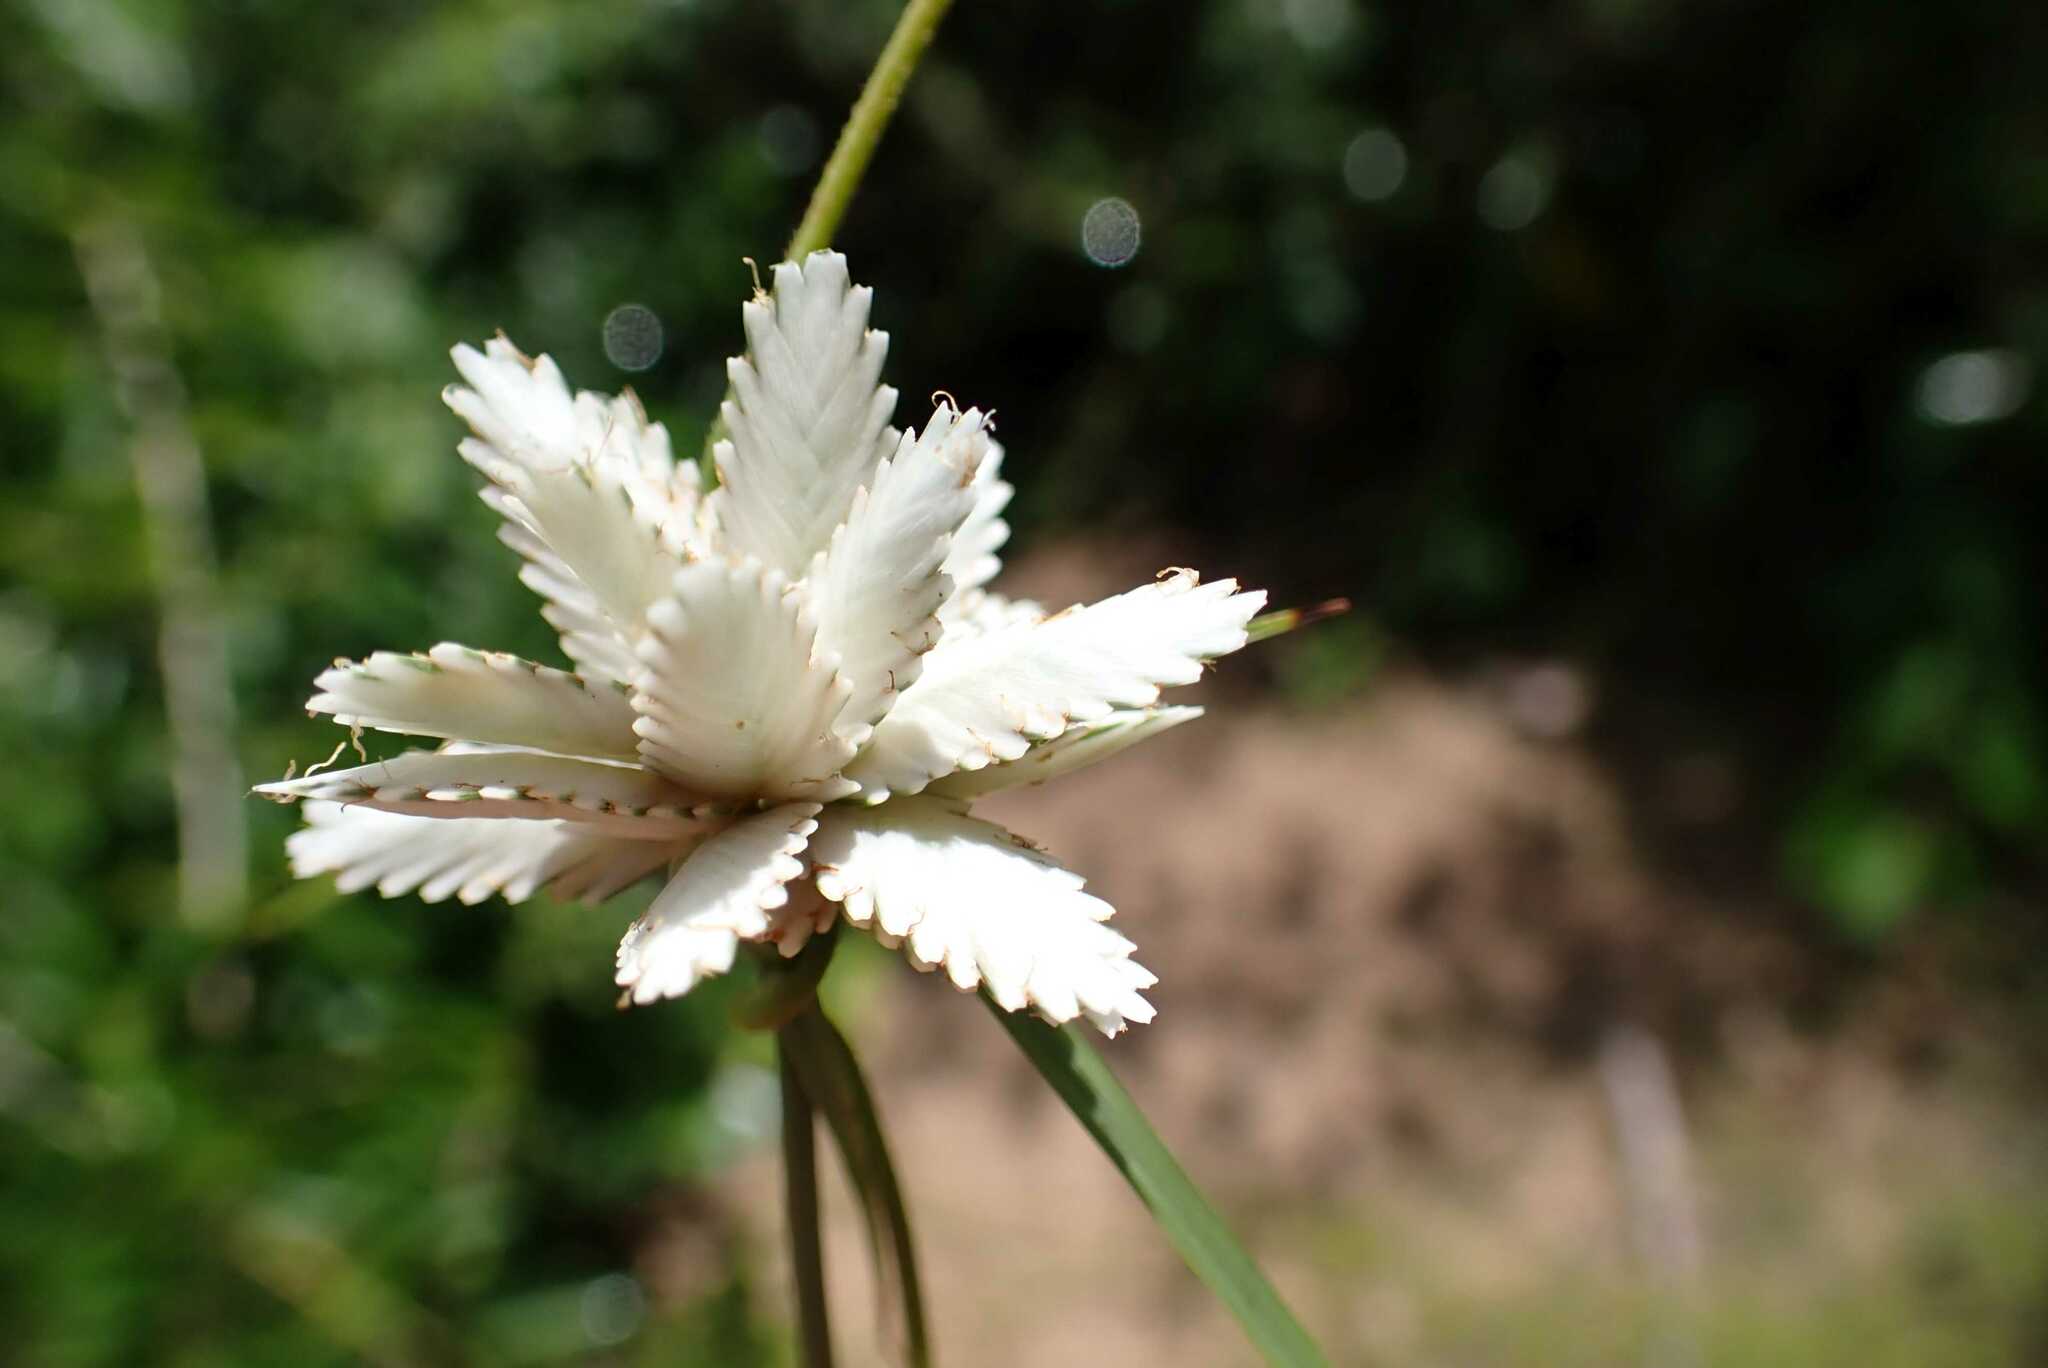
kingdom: Plantae
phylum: Tracheophyta
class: Liliopsida
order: Poales
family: Cyperaceae
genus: Cyperus
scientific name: Cyperus niveus
